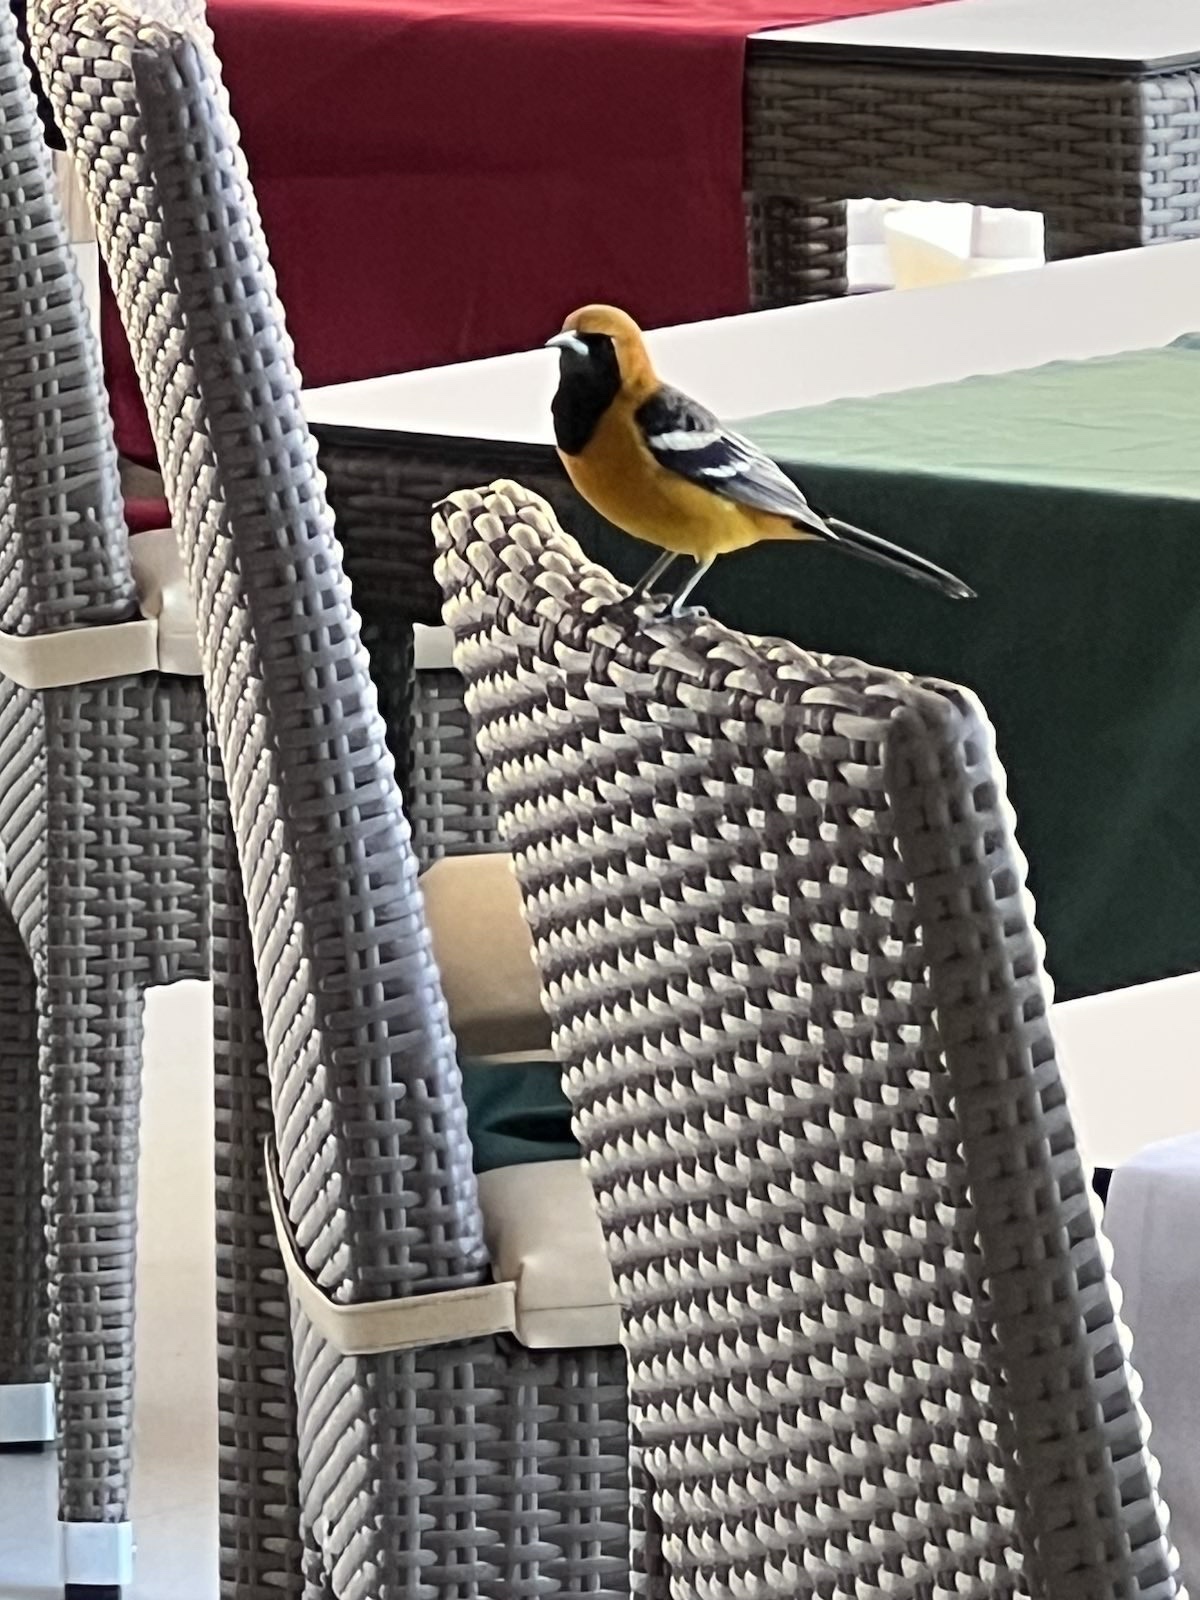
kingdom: Animalia
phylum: Chordata
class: Aves
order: Passeriformes
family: Icteridae
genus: Icterus
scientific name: Icterus cucullatus
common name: Hooded oriole
